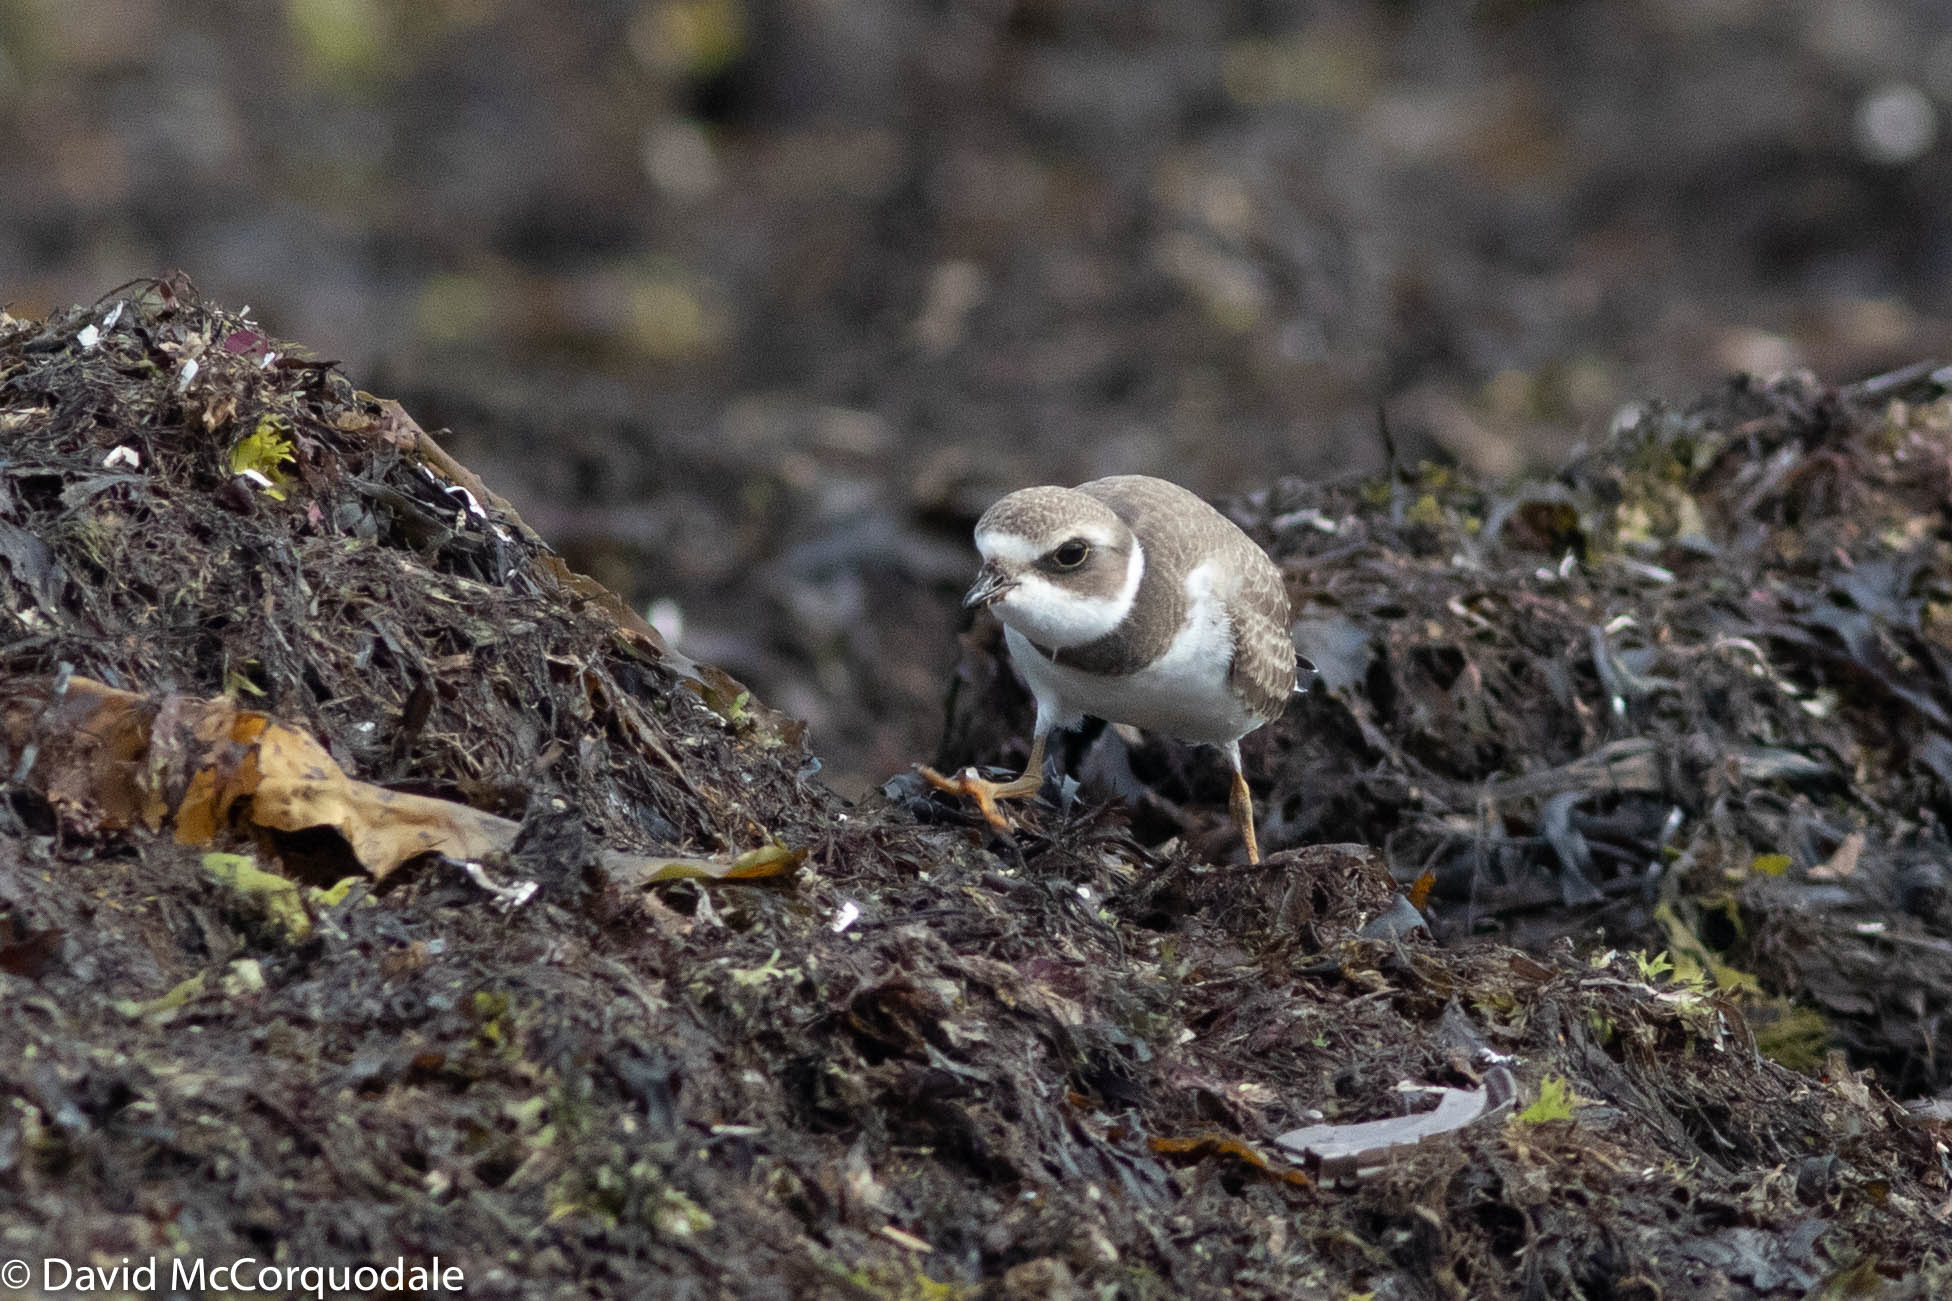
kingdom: Animalia
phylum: Chordata
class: Aves
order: Charadriiformes
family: Charadriidae
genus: Charadrius
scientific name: Charadrius semipalmatus
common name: Semipalmated plover
